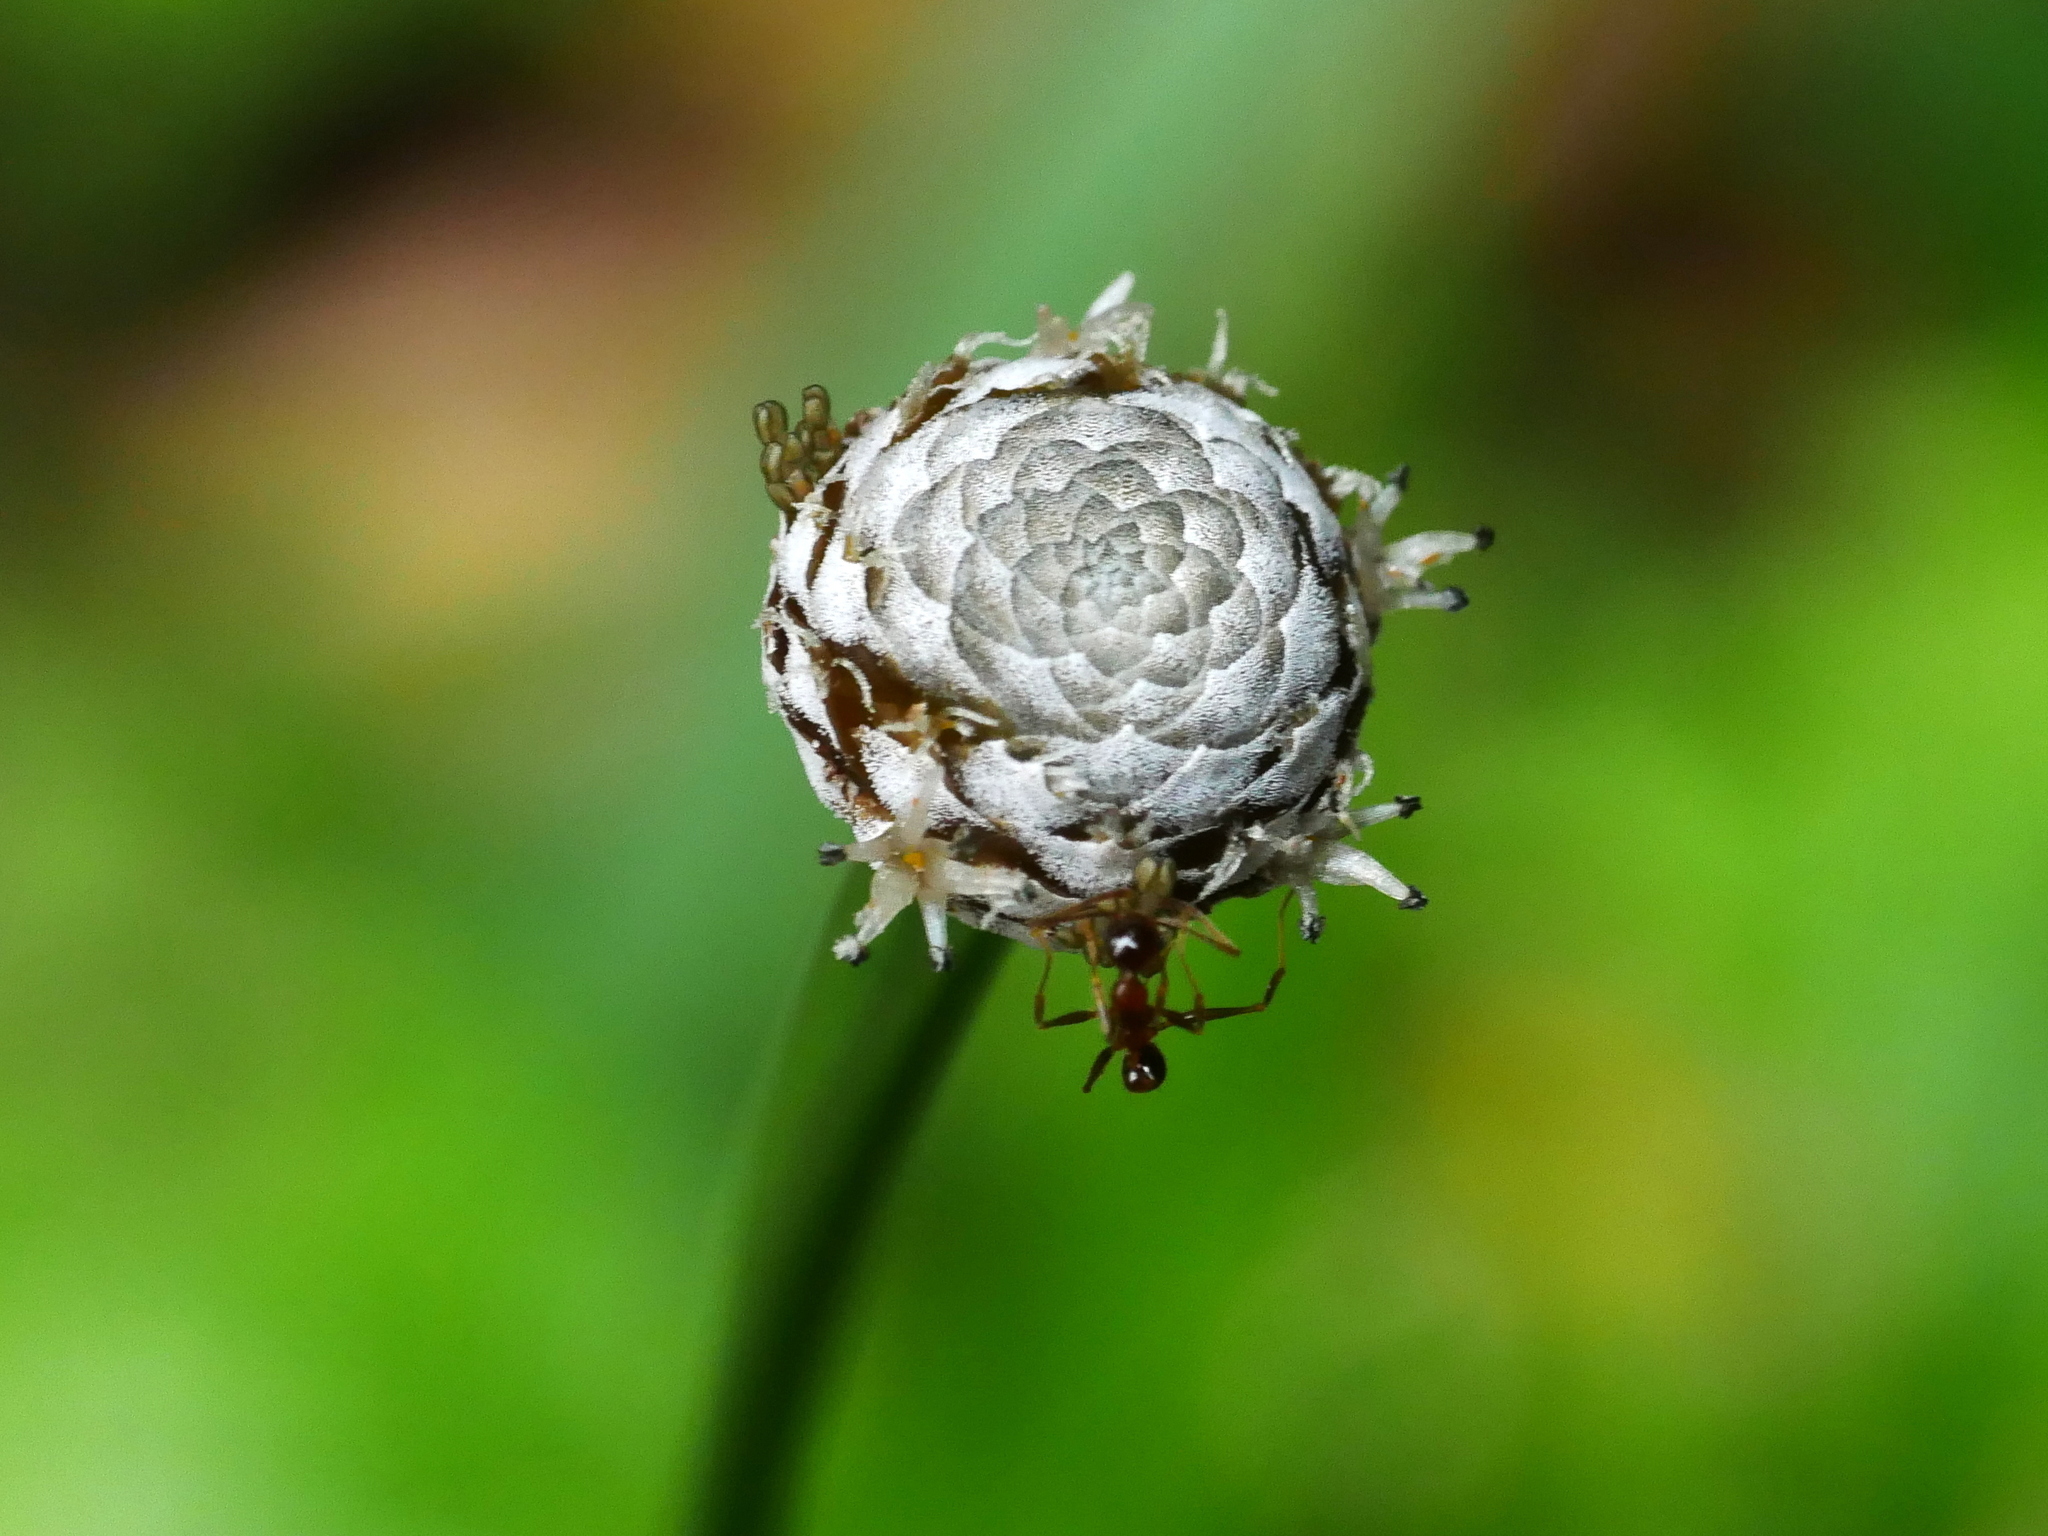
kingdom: Plantae
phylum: Tracheophyta
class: Liliopsida
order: Poales
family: Eriocaulaceae
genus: Eriocaulon
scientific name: Eriocaulon sexangulare
